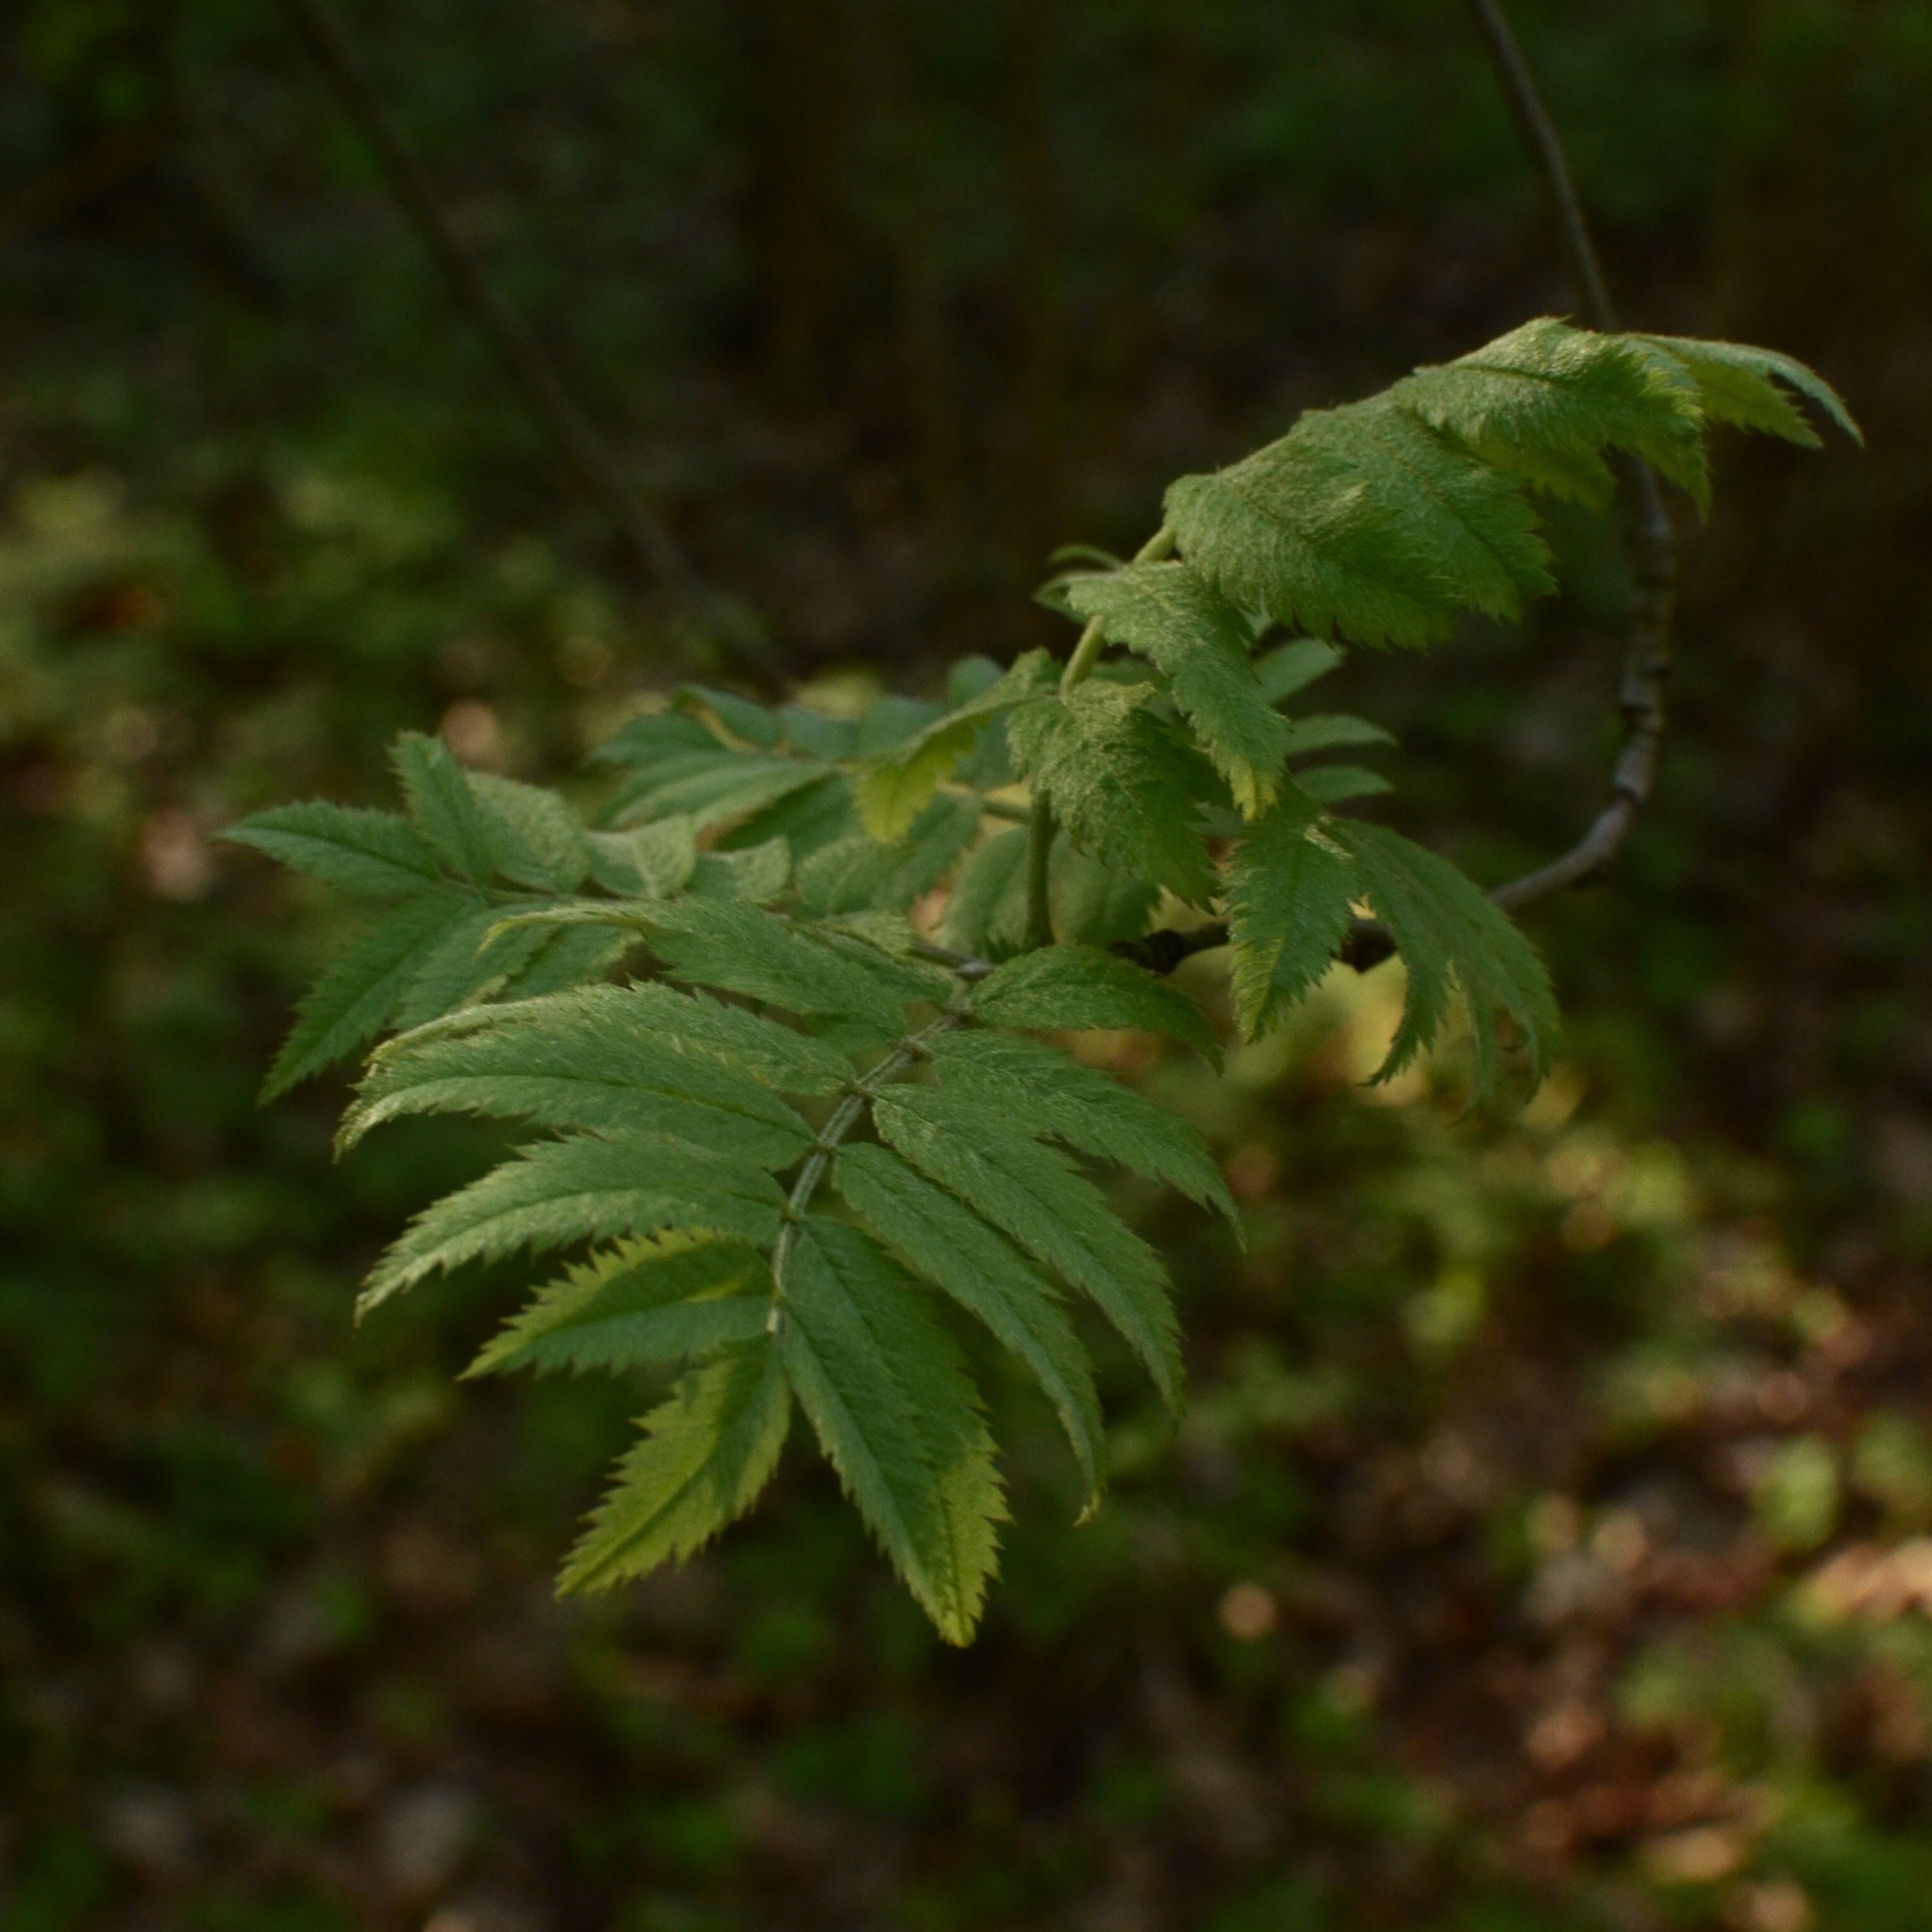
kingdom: Plantae
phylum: Tracheophyta
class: Magnoliopsida
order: Rosales
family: Rosaceae
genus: Sorbus
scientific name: Sorbus aucuparia
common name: Rowan
